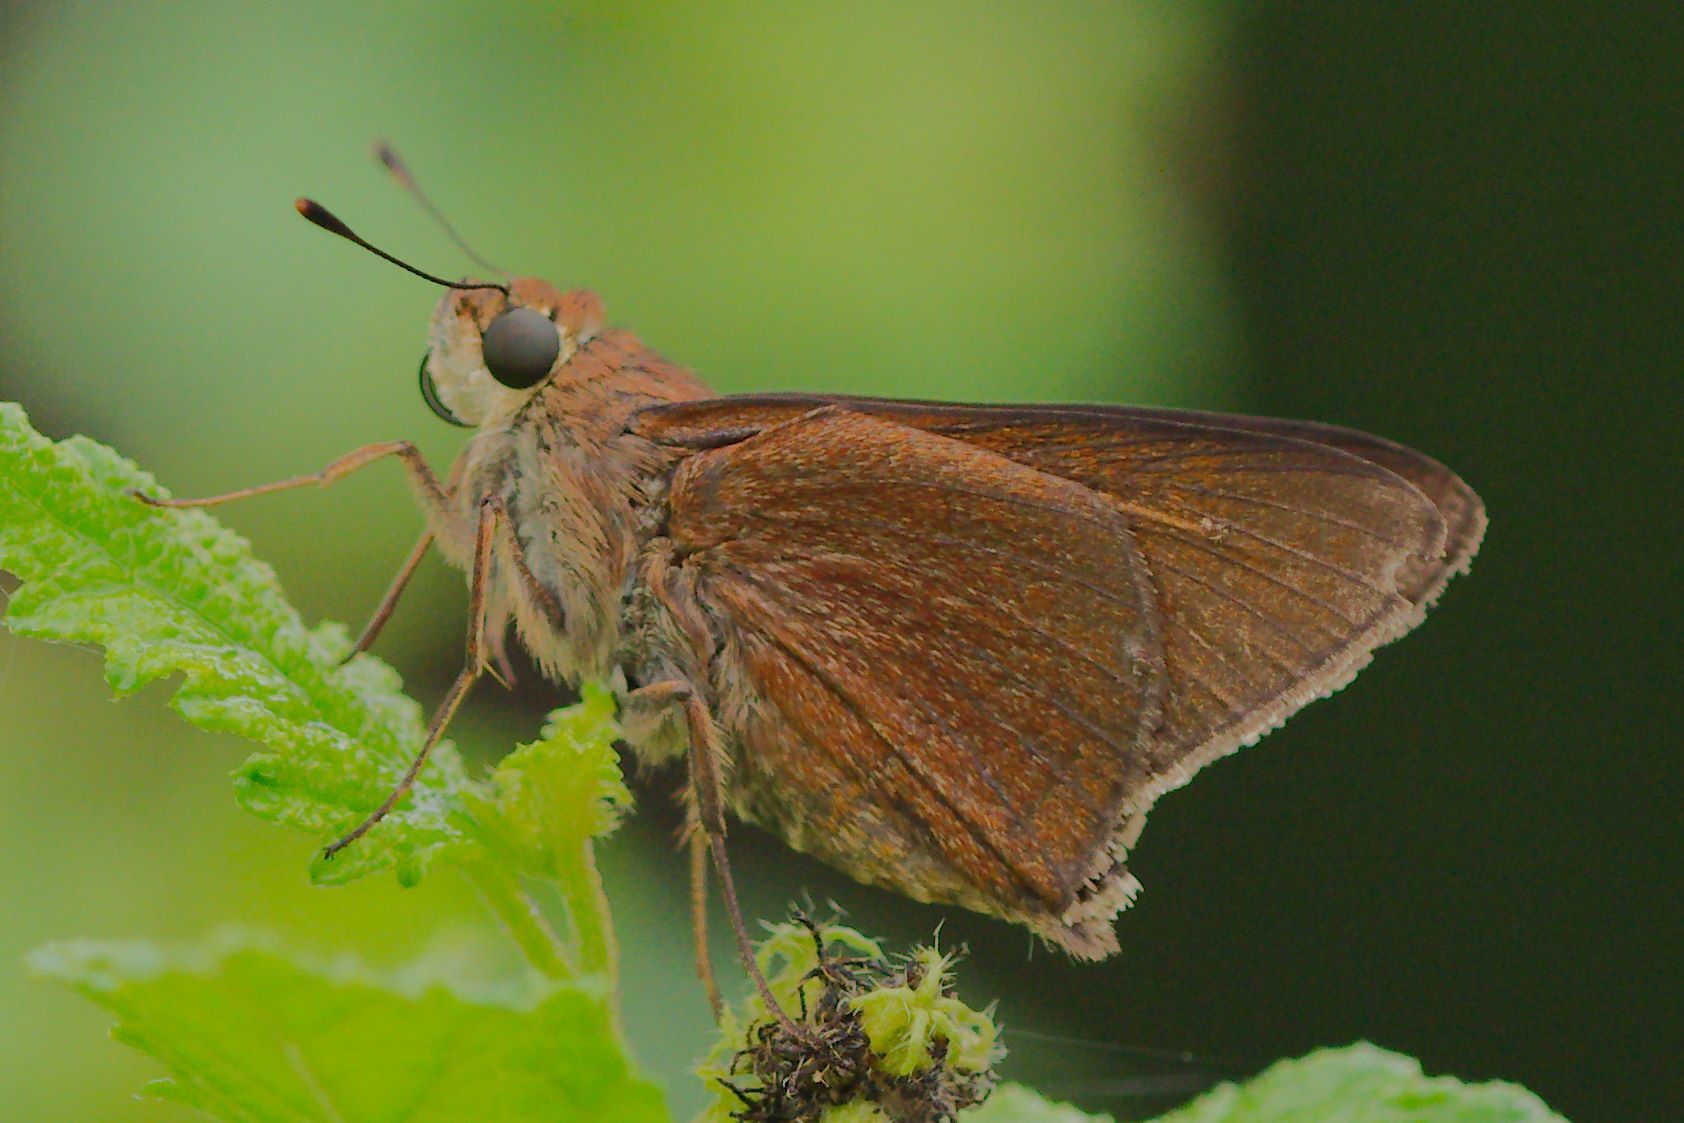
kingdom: Animalia
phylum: Arthropoda
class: Insecta
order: Lepidoptera
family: Hesperiidae
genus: Asbolis
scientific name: Asbolis capucinus
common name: Monk skipper
